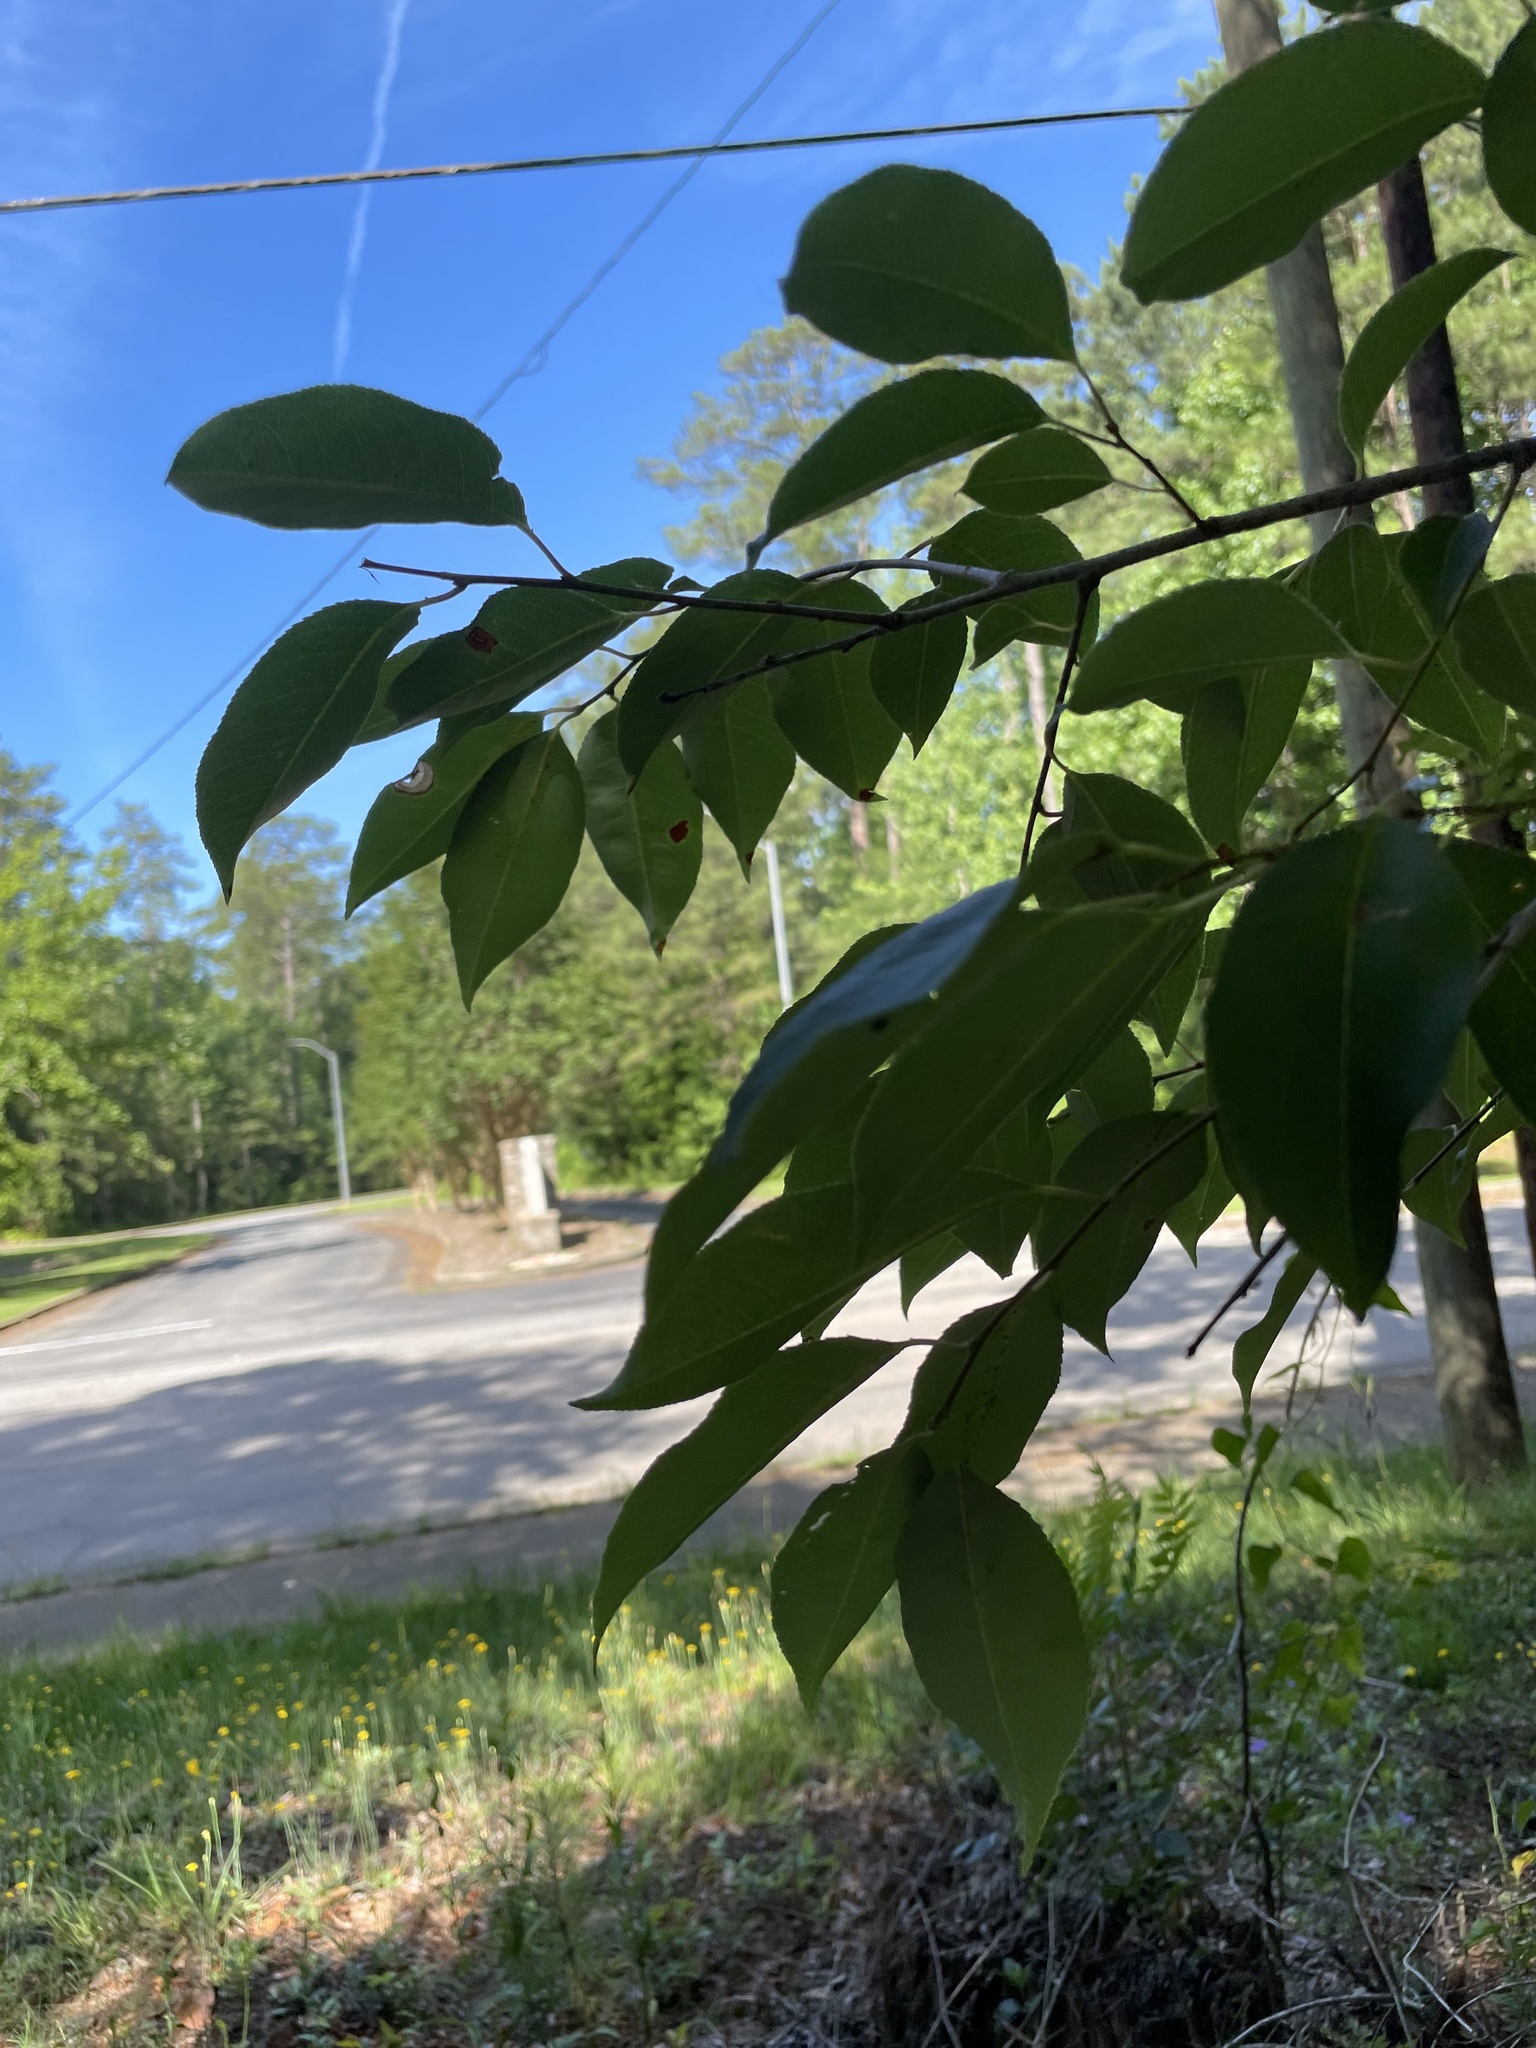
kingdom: Plantae
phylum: Tracheophyta
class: Magnoliopsida
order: Rosales
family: Rosaceae
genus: Prunus
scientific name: Prunus serotina
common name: Black cherry
